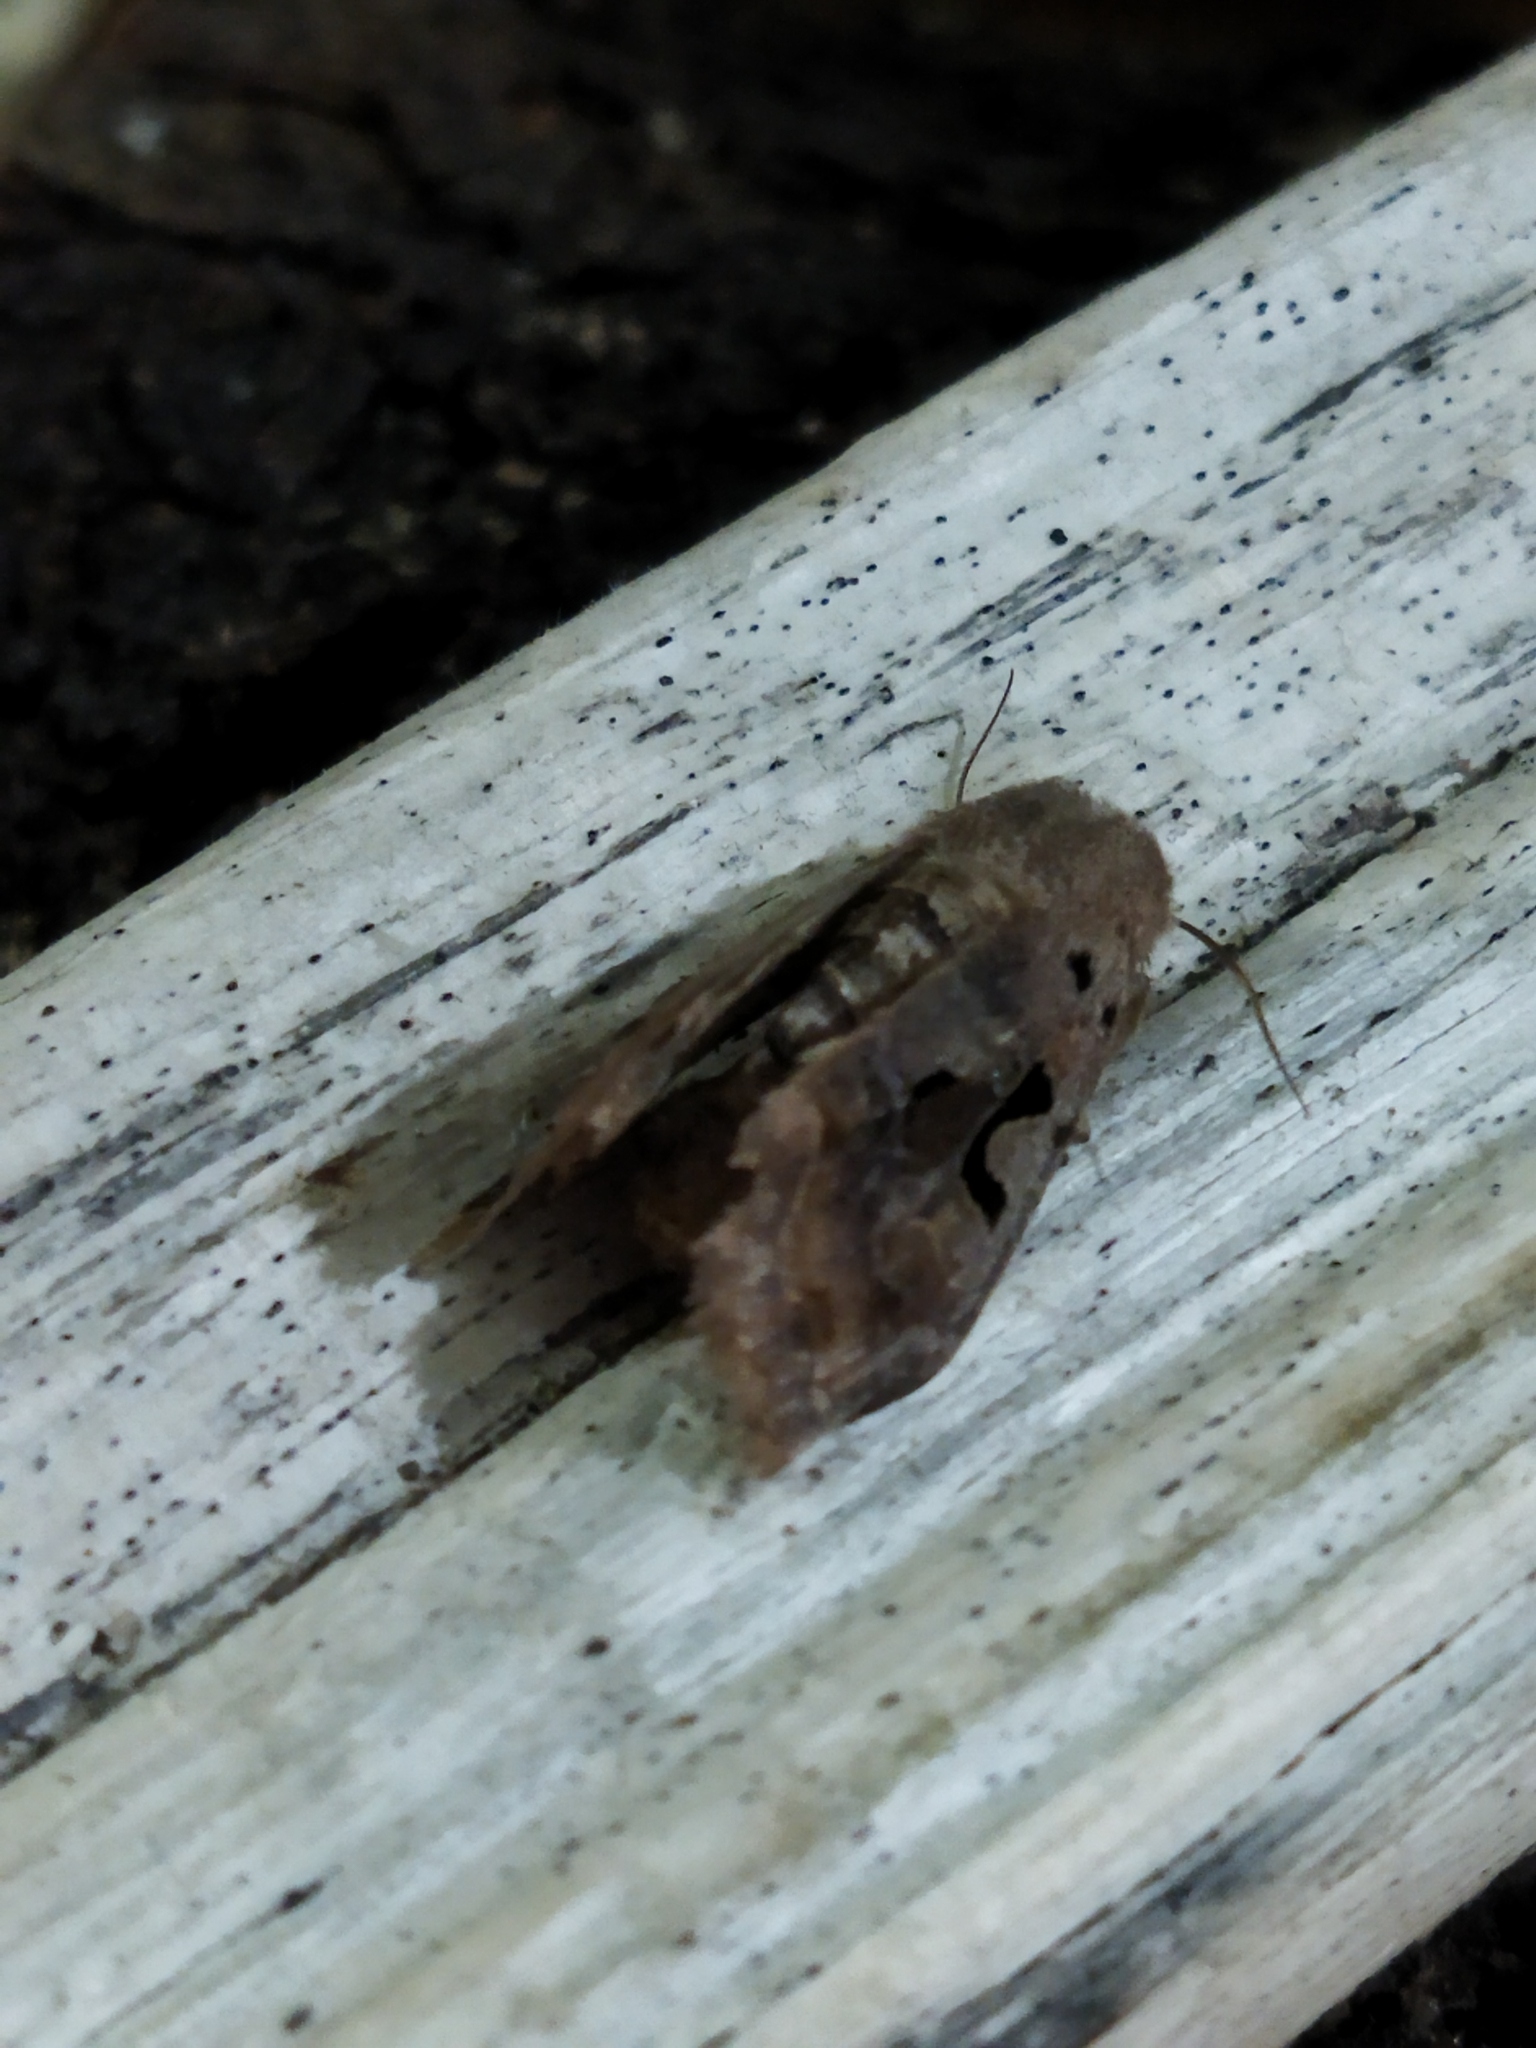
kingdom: Animalia
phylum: Arthropoda
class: Insecta
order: Lepidoptera
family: Noctuidae
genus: Orthosia
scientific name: Orthosia gothica
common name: Hebrew character
